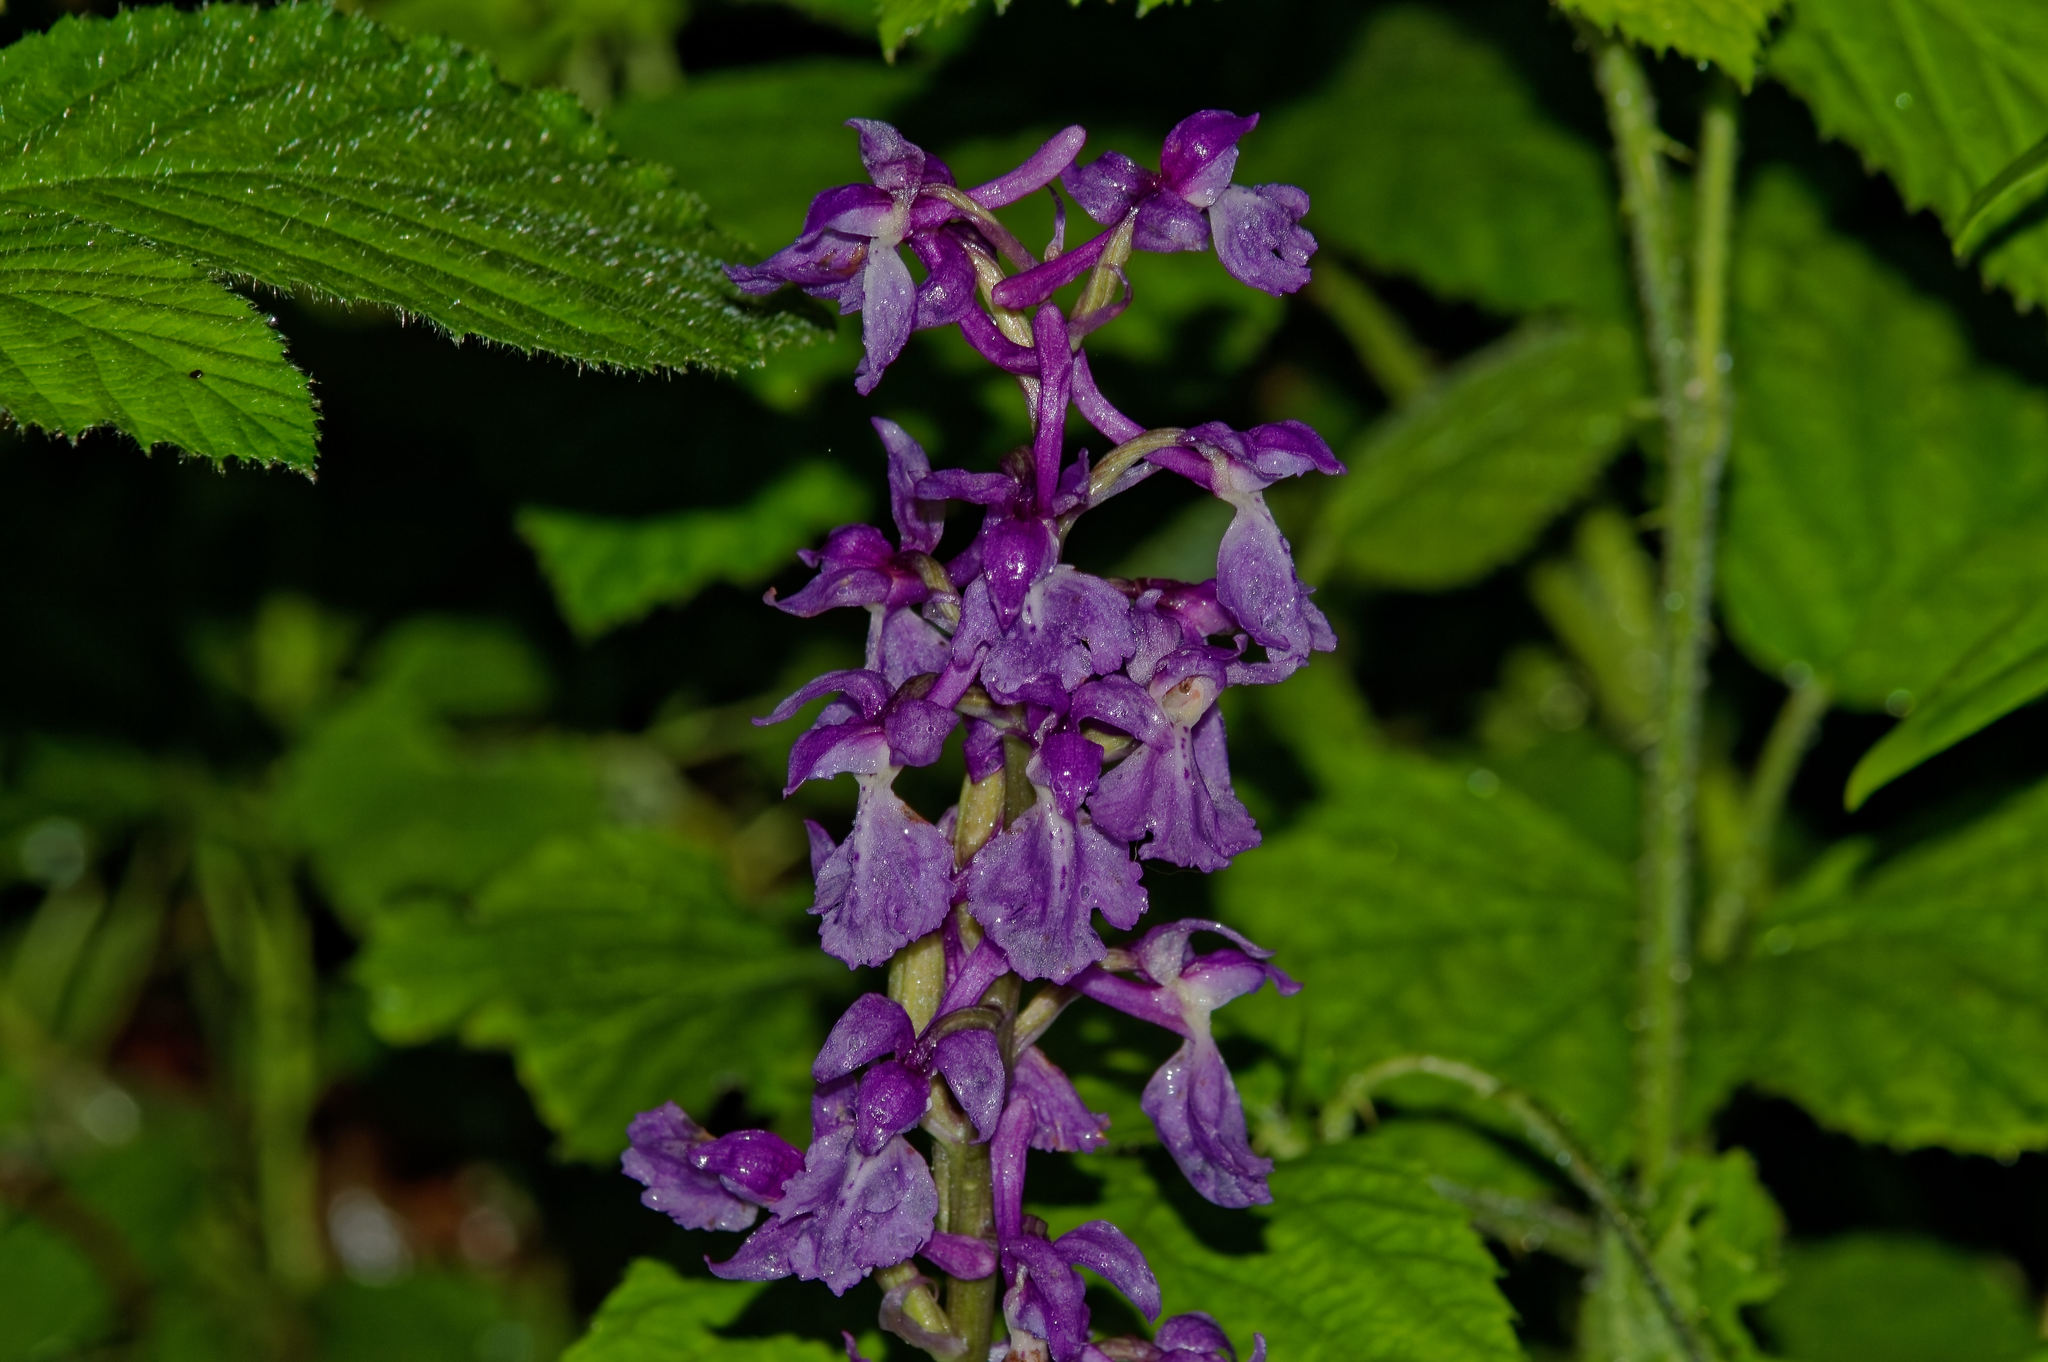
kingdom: Plantae
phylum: Tracheophyta
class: Liliopsida
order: Asparagales
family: Orchidaceae
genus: Orchis
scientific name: Orchis mascula
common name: Early-purple orchid
